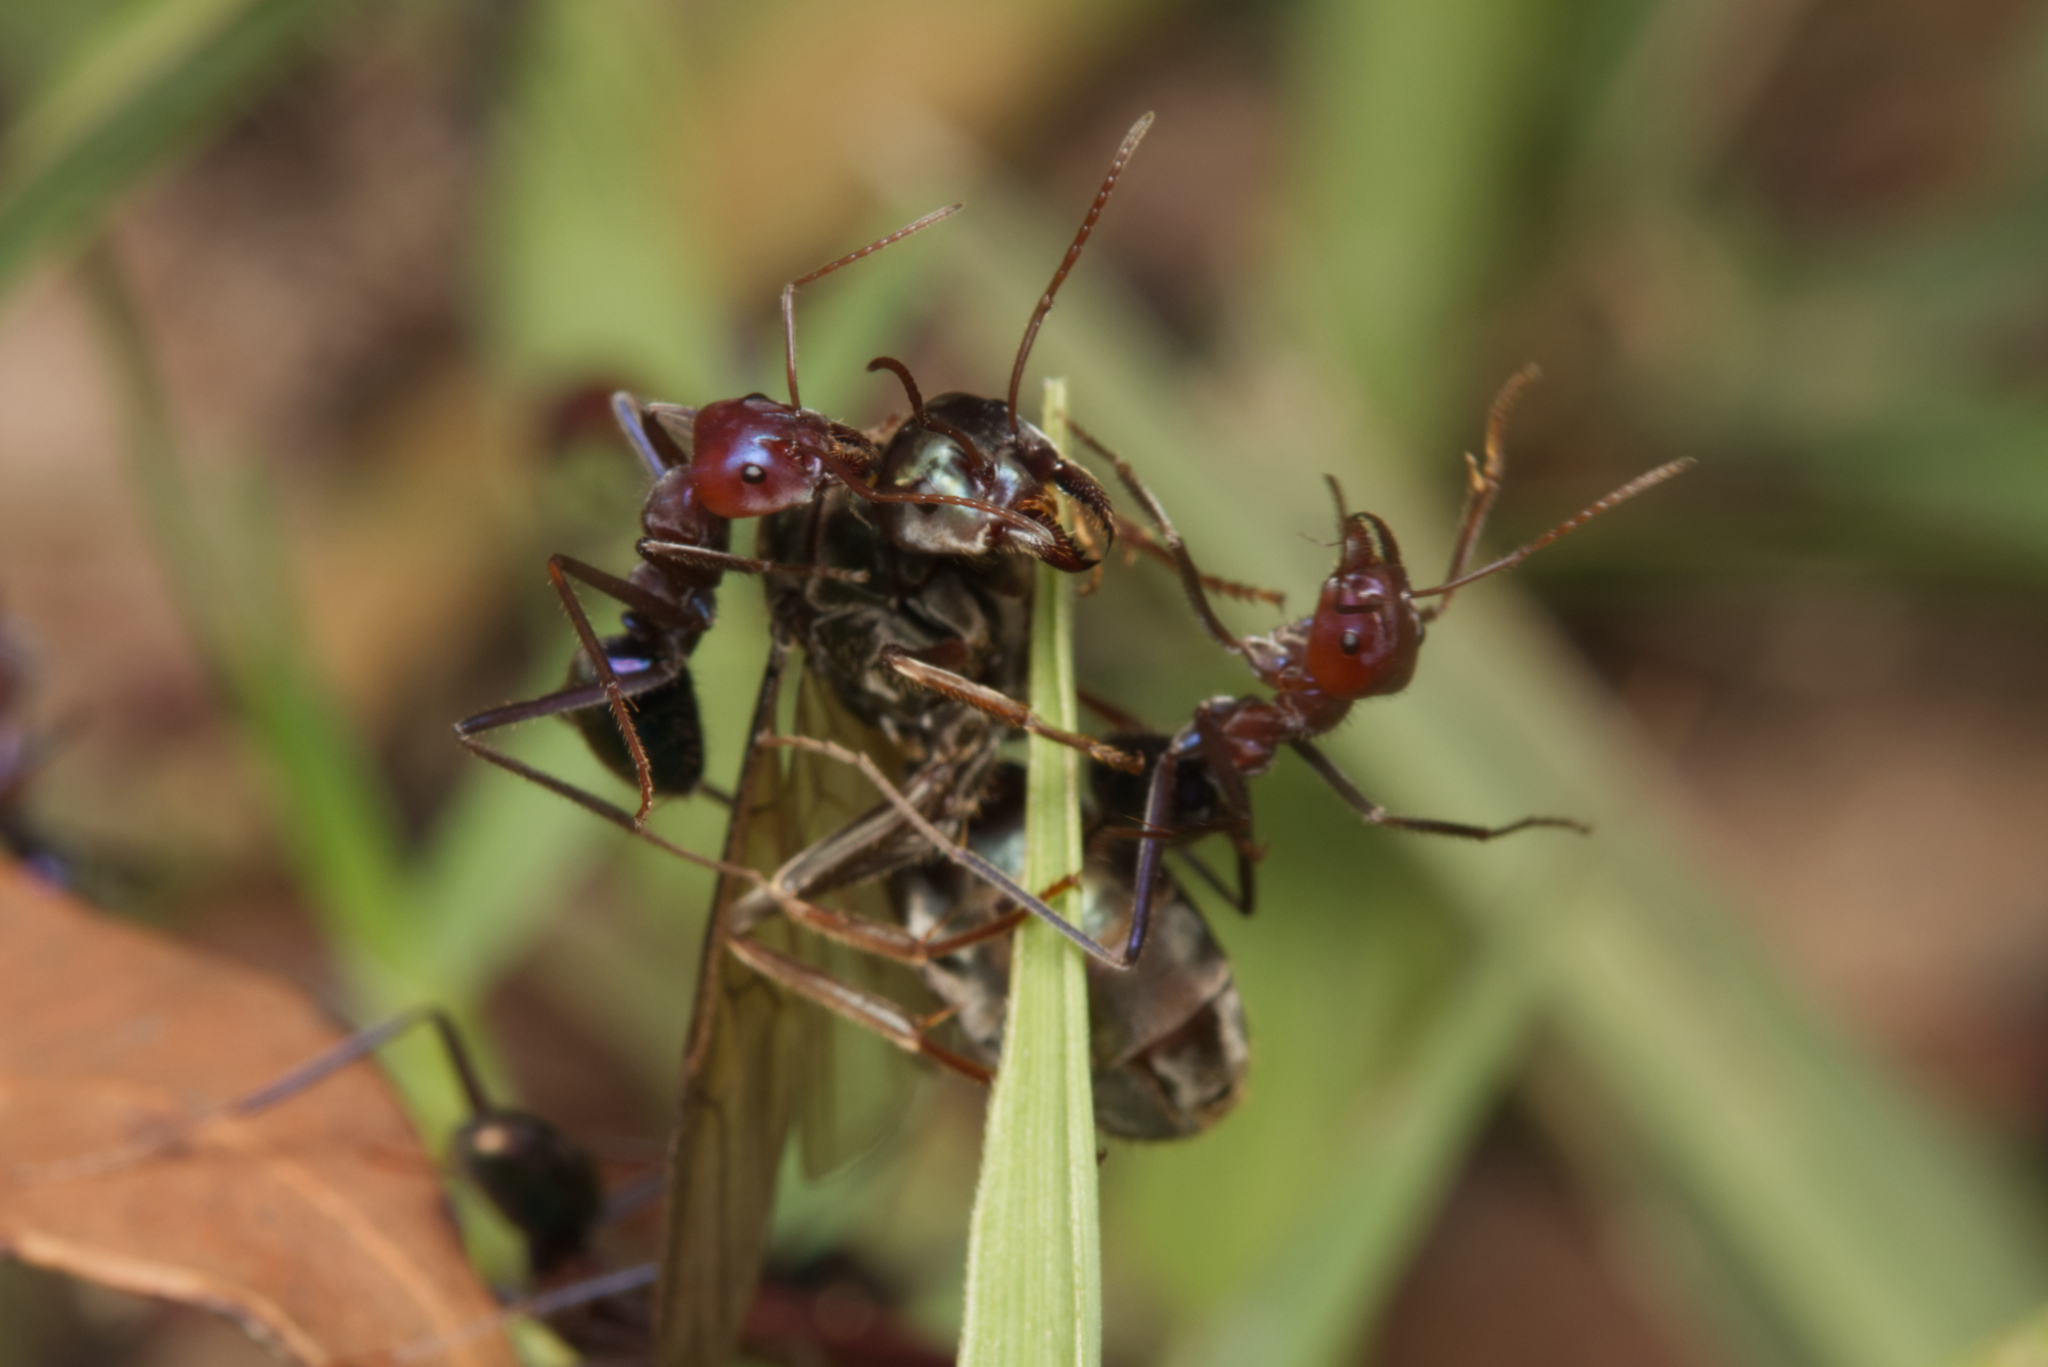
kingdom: Animalia
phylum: Arthropoda
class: Insecta
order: Hymenoptera
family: Formicidae
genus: Iridomyrmex
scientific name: Iridomyrmex purpureus
